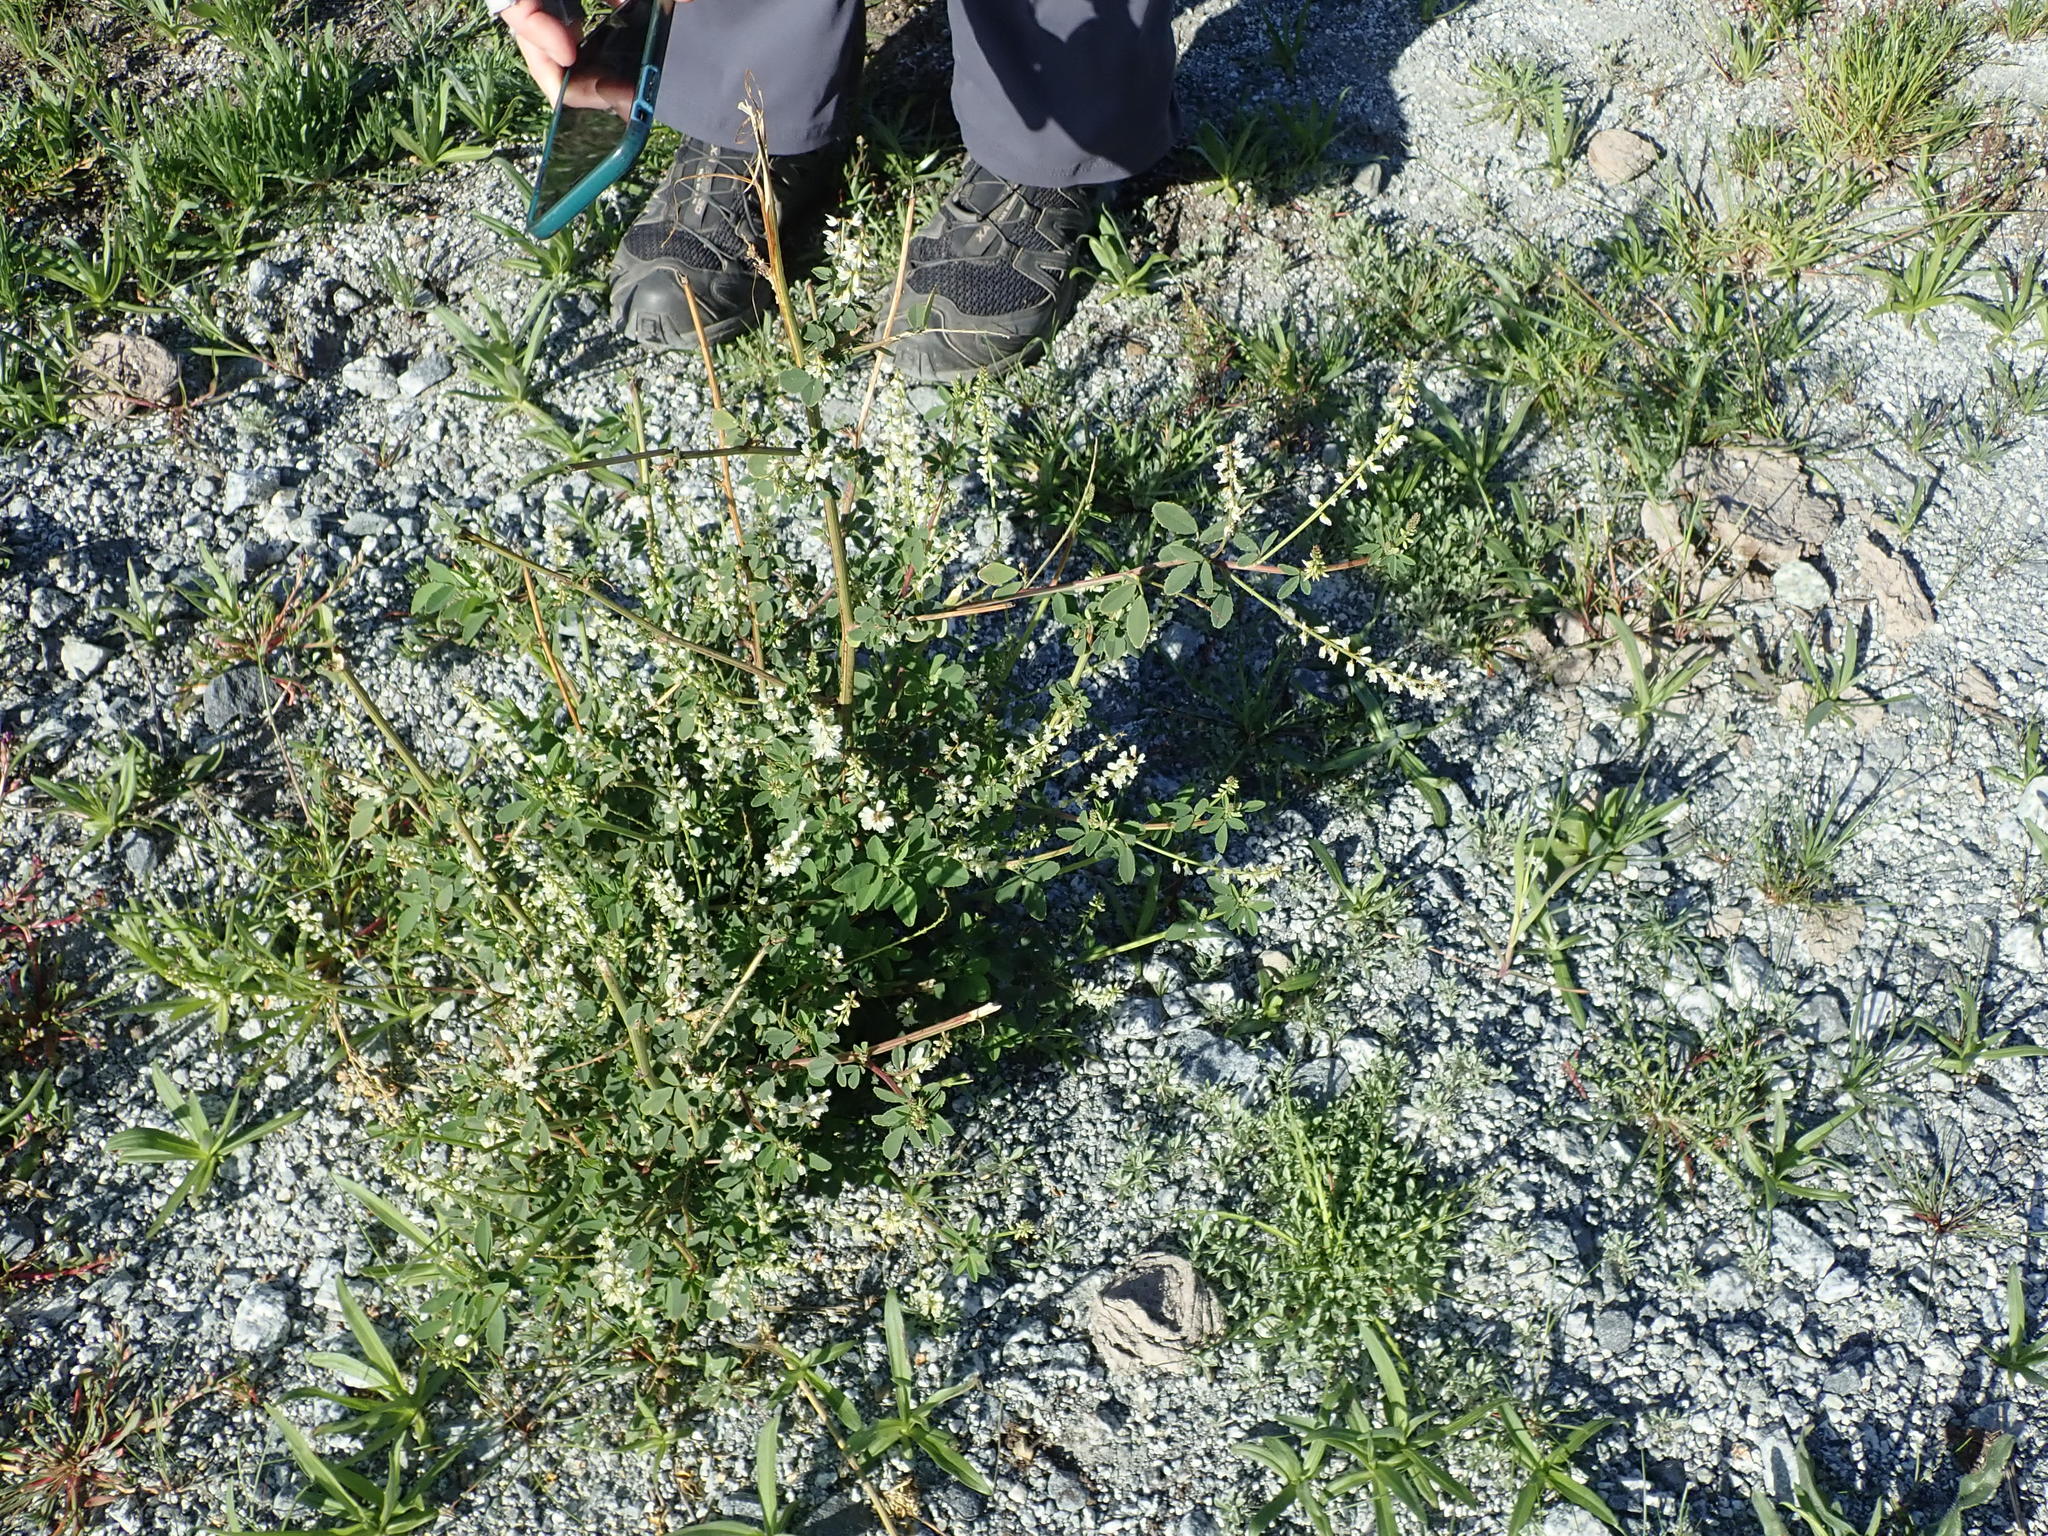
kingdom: Plantae
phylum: Tracheophyta
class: Magnoliopsida
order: Fabales
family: Fabaceae
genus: Melilotus
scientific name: Melilotus albus
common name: White melilot
